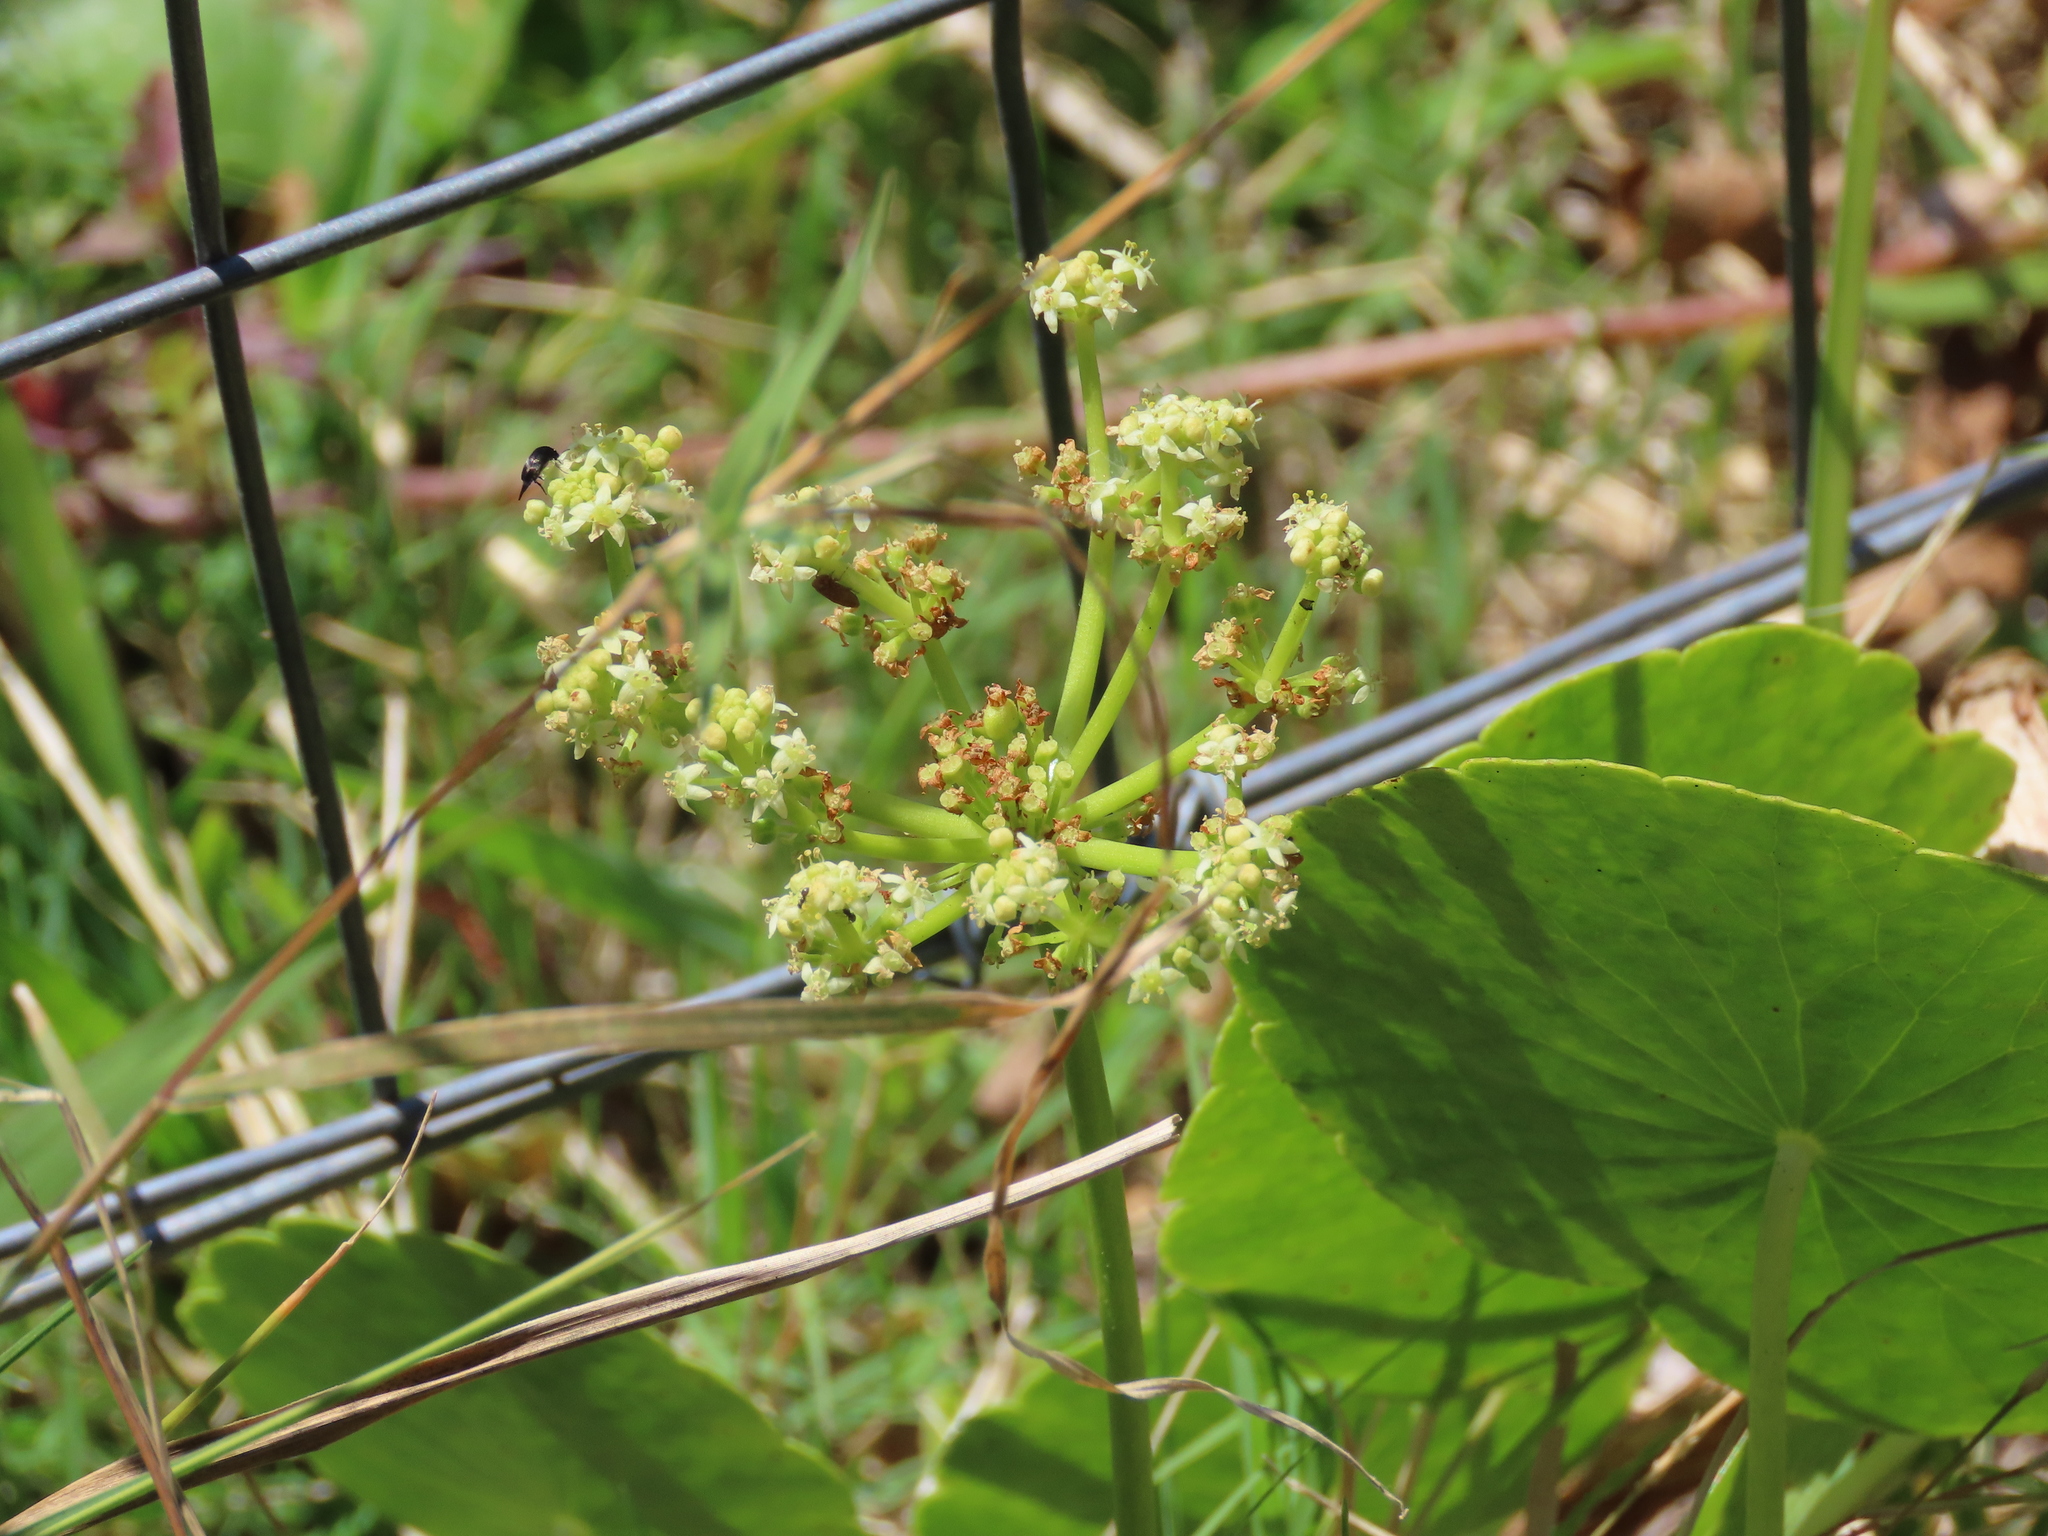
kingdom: Plantae
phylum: Tracheophyta
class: Magnoliopsida
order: Apiales
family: Araliaceae
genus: Hydrocotyle
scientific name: Hydrocotyle bonariensis
